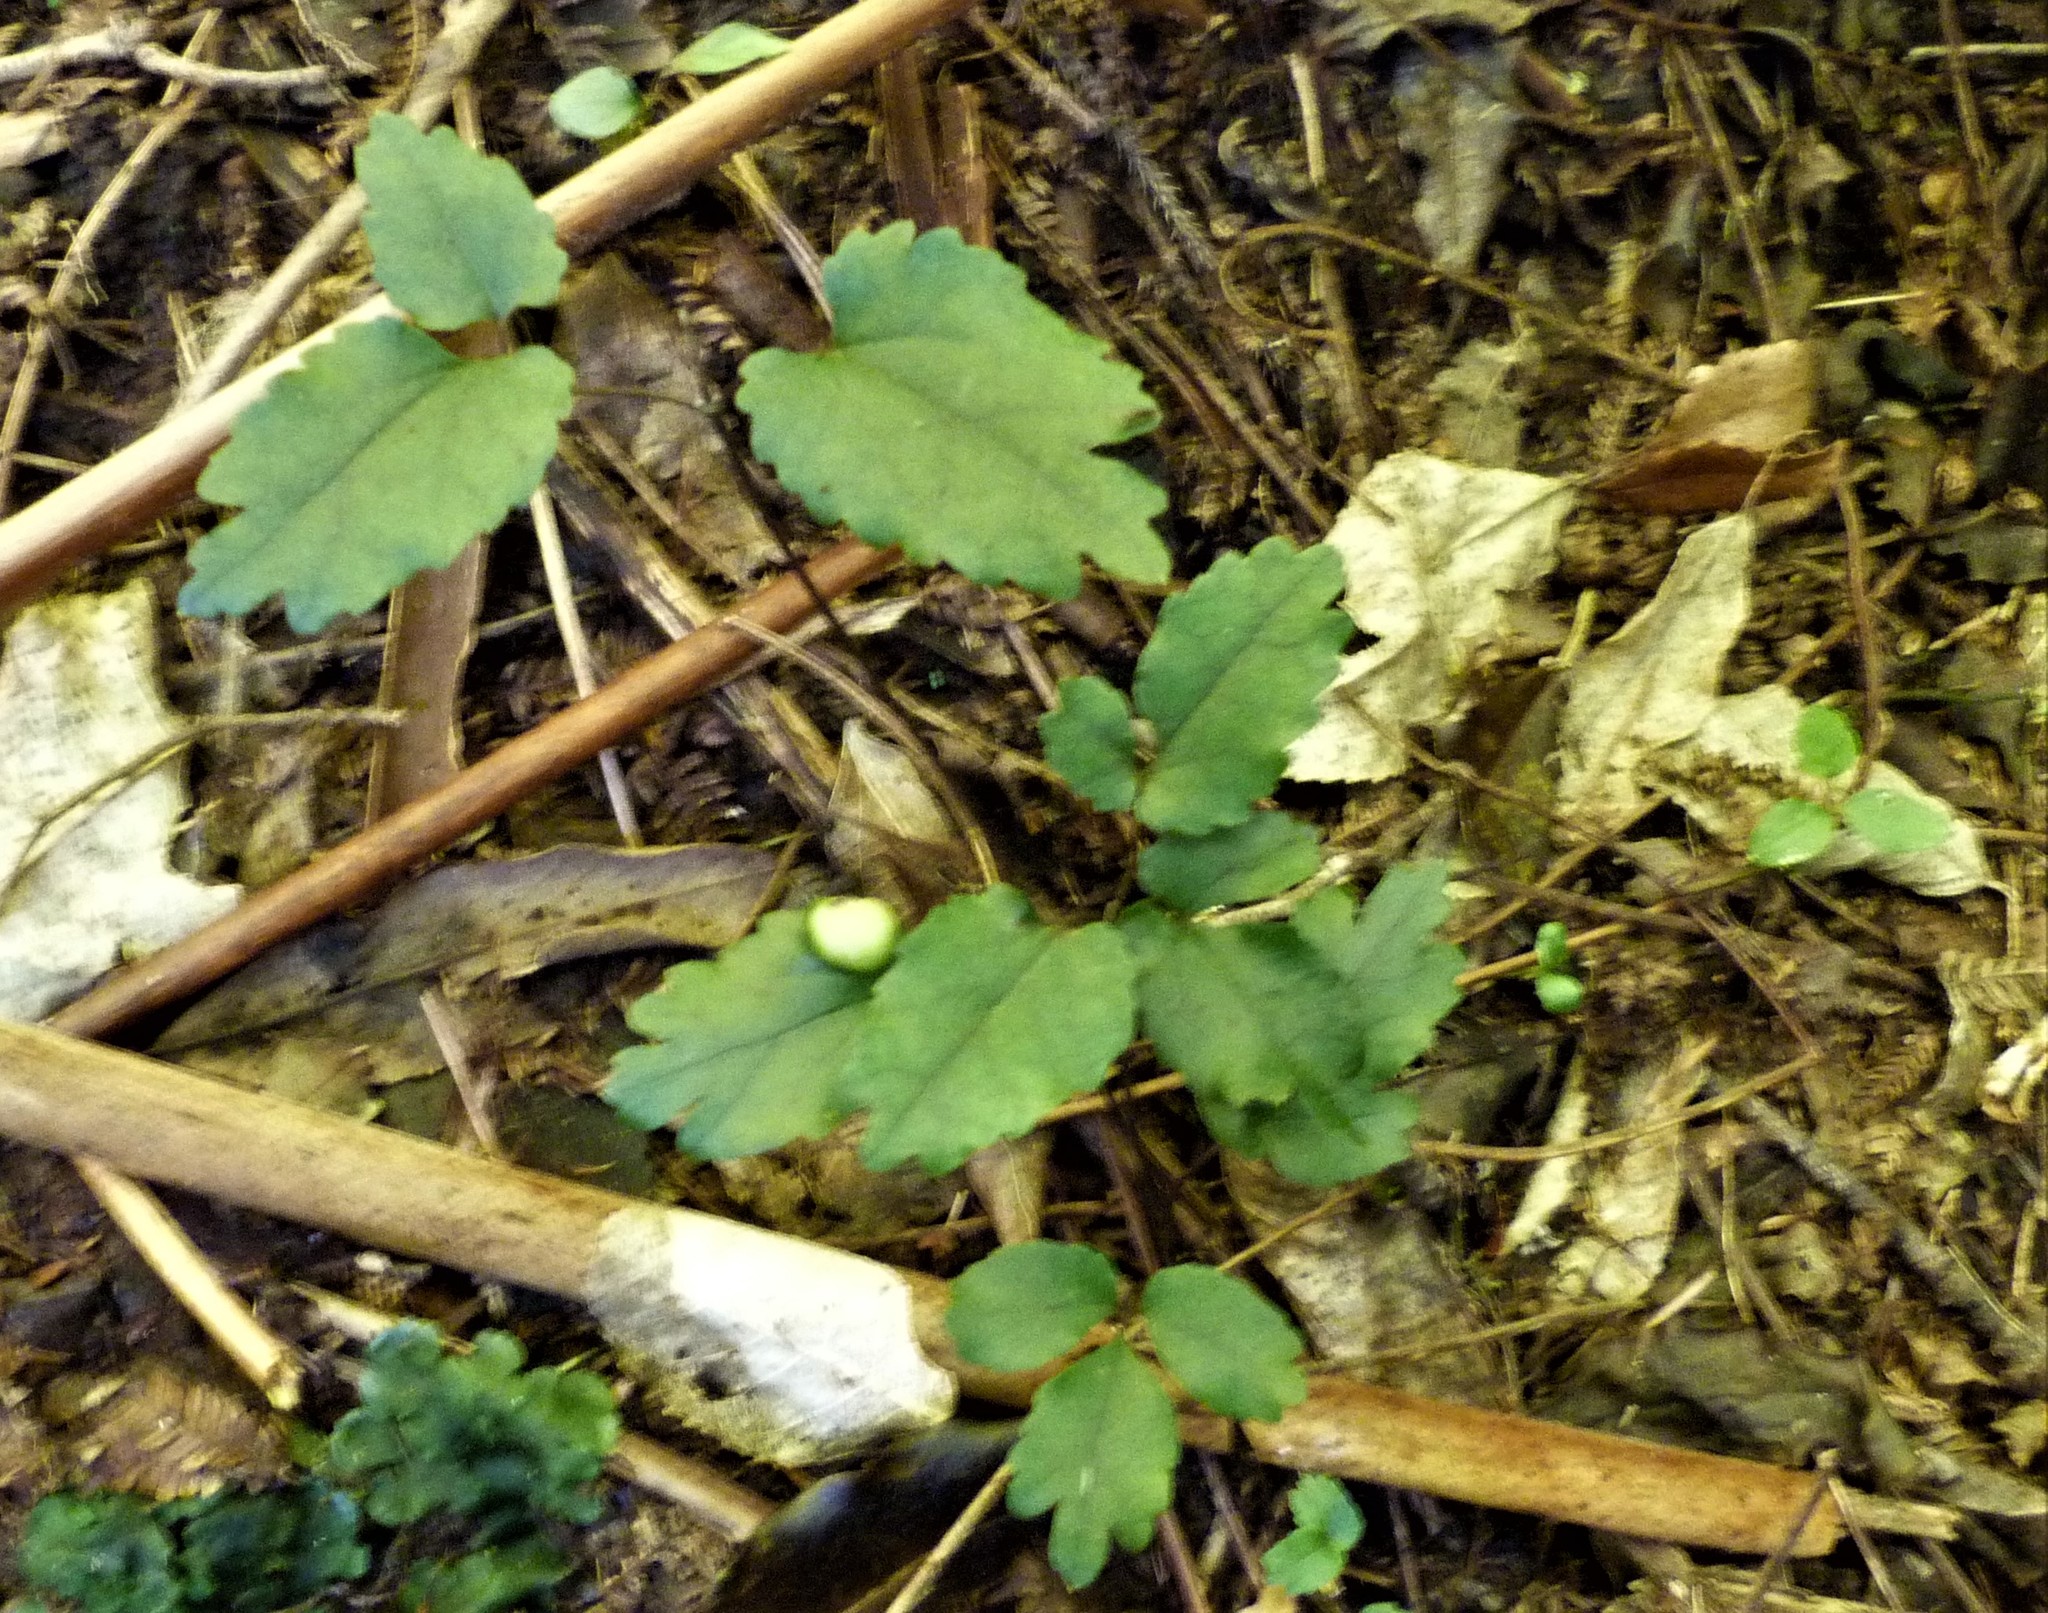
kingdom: Plantae
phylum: Tracheophyta
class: Magnoliopsida
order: Ranunculales
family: Ranunculaceae
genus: Clematis
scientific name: Clematis paniculata
